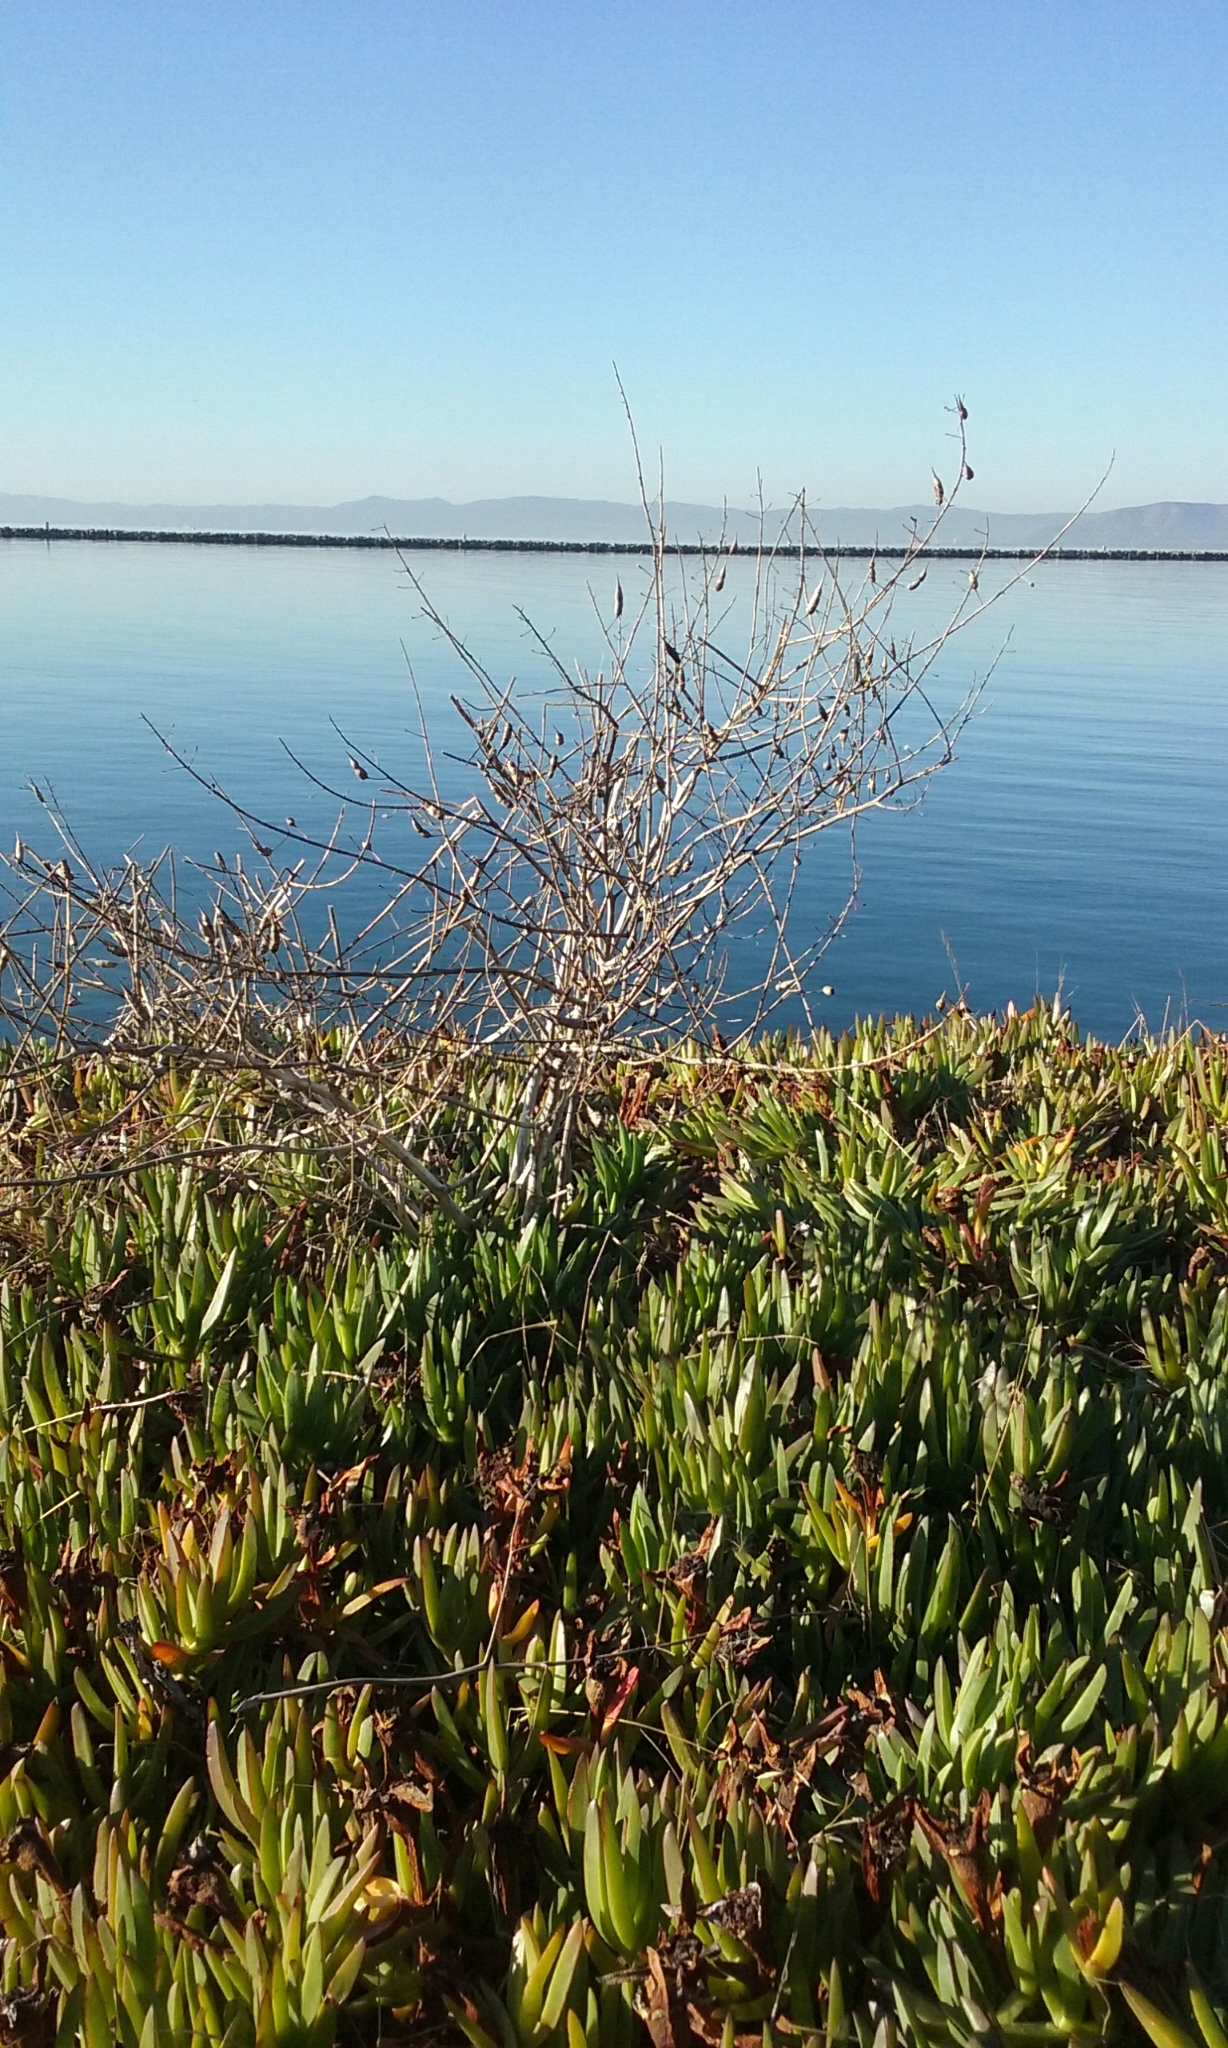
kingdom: Plantae
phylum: Tracheophyta
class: Magnoliopsida
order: Brassicales
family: Brassicaceae
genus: Raphanus
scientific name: Raphanus sativus
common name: Cultivated radish
